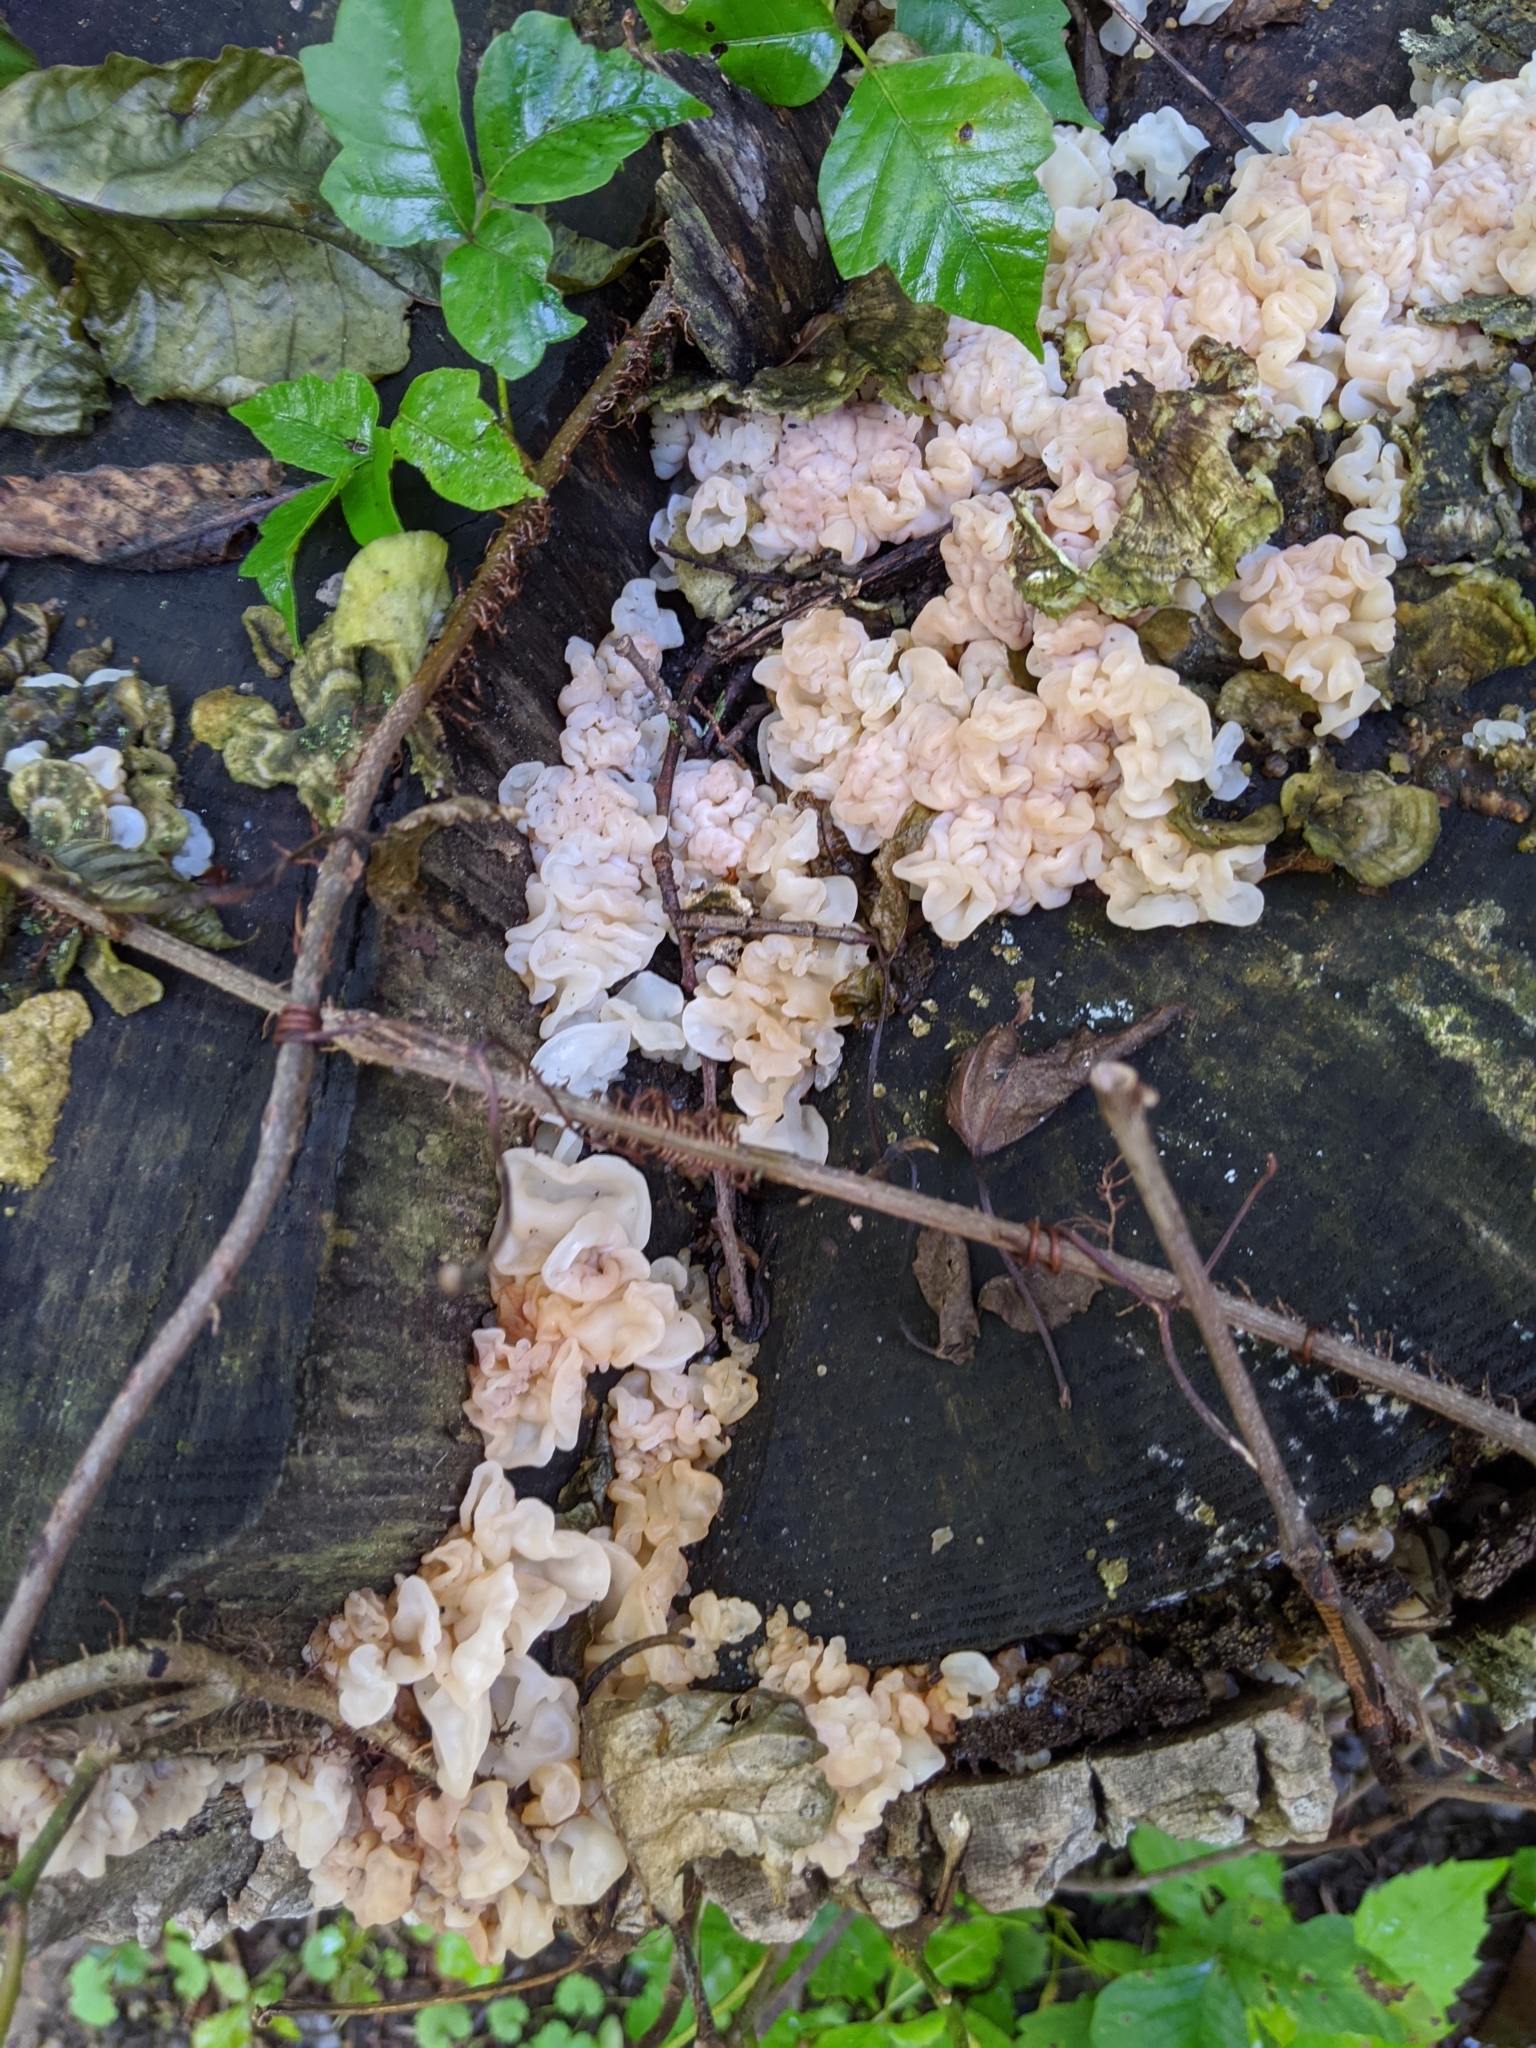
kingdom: Fungi
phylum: Basidiomycota
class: Agaricomycetes
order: Auriculariales
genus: Ductifera
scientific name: Ductifera pululahuana
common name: White jelly fungus
